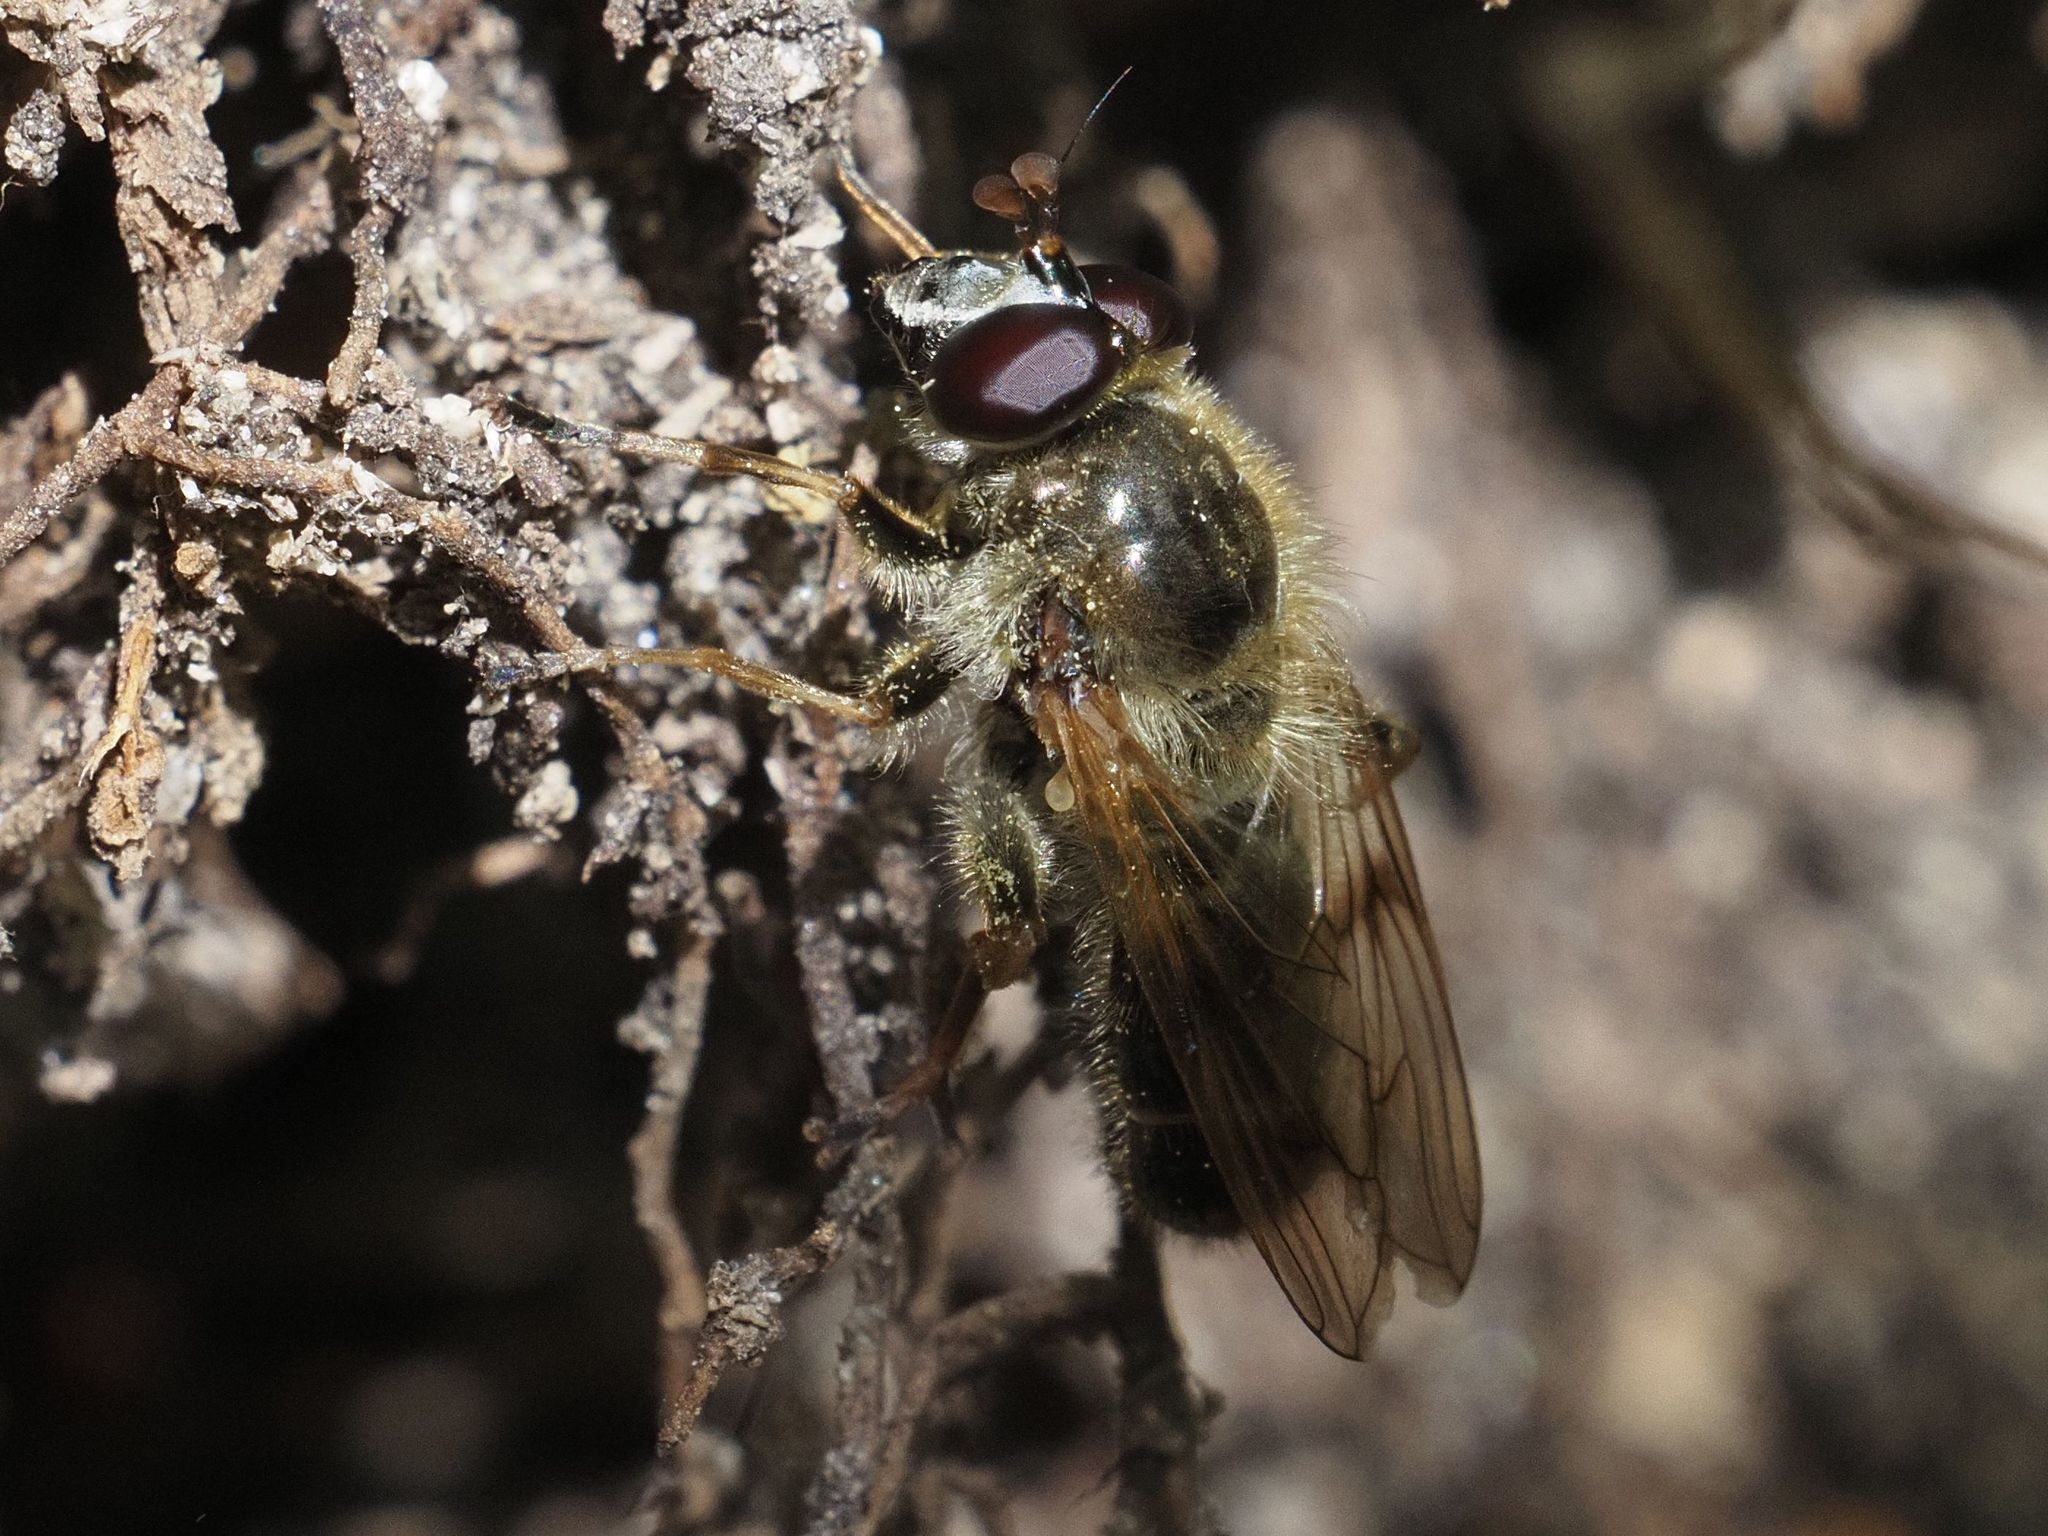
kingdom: Animalia
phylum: Arthropoda
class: Insecta
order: Diptera
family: Syrphidae
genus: Criorhina
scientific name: Criorhina asilica
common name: Pale-banded bear hoverfly
